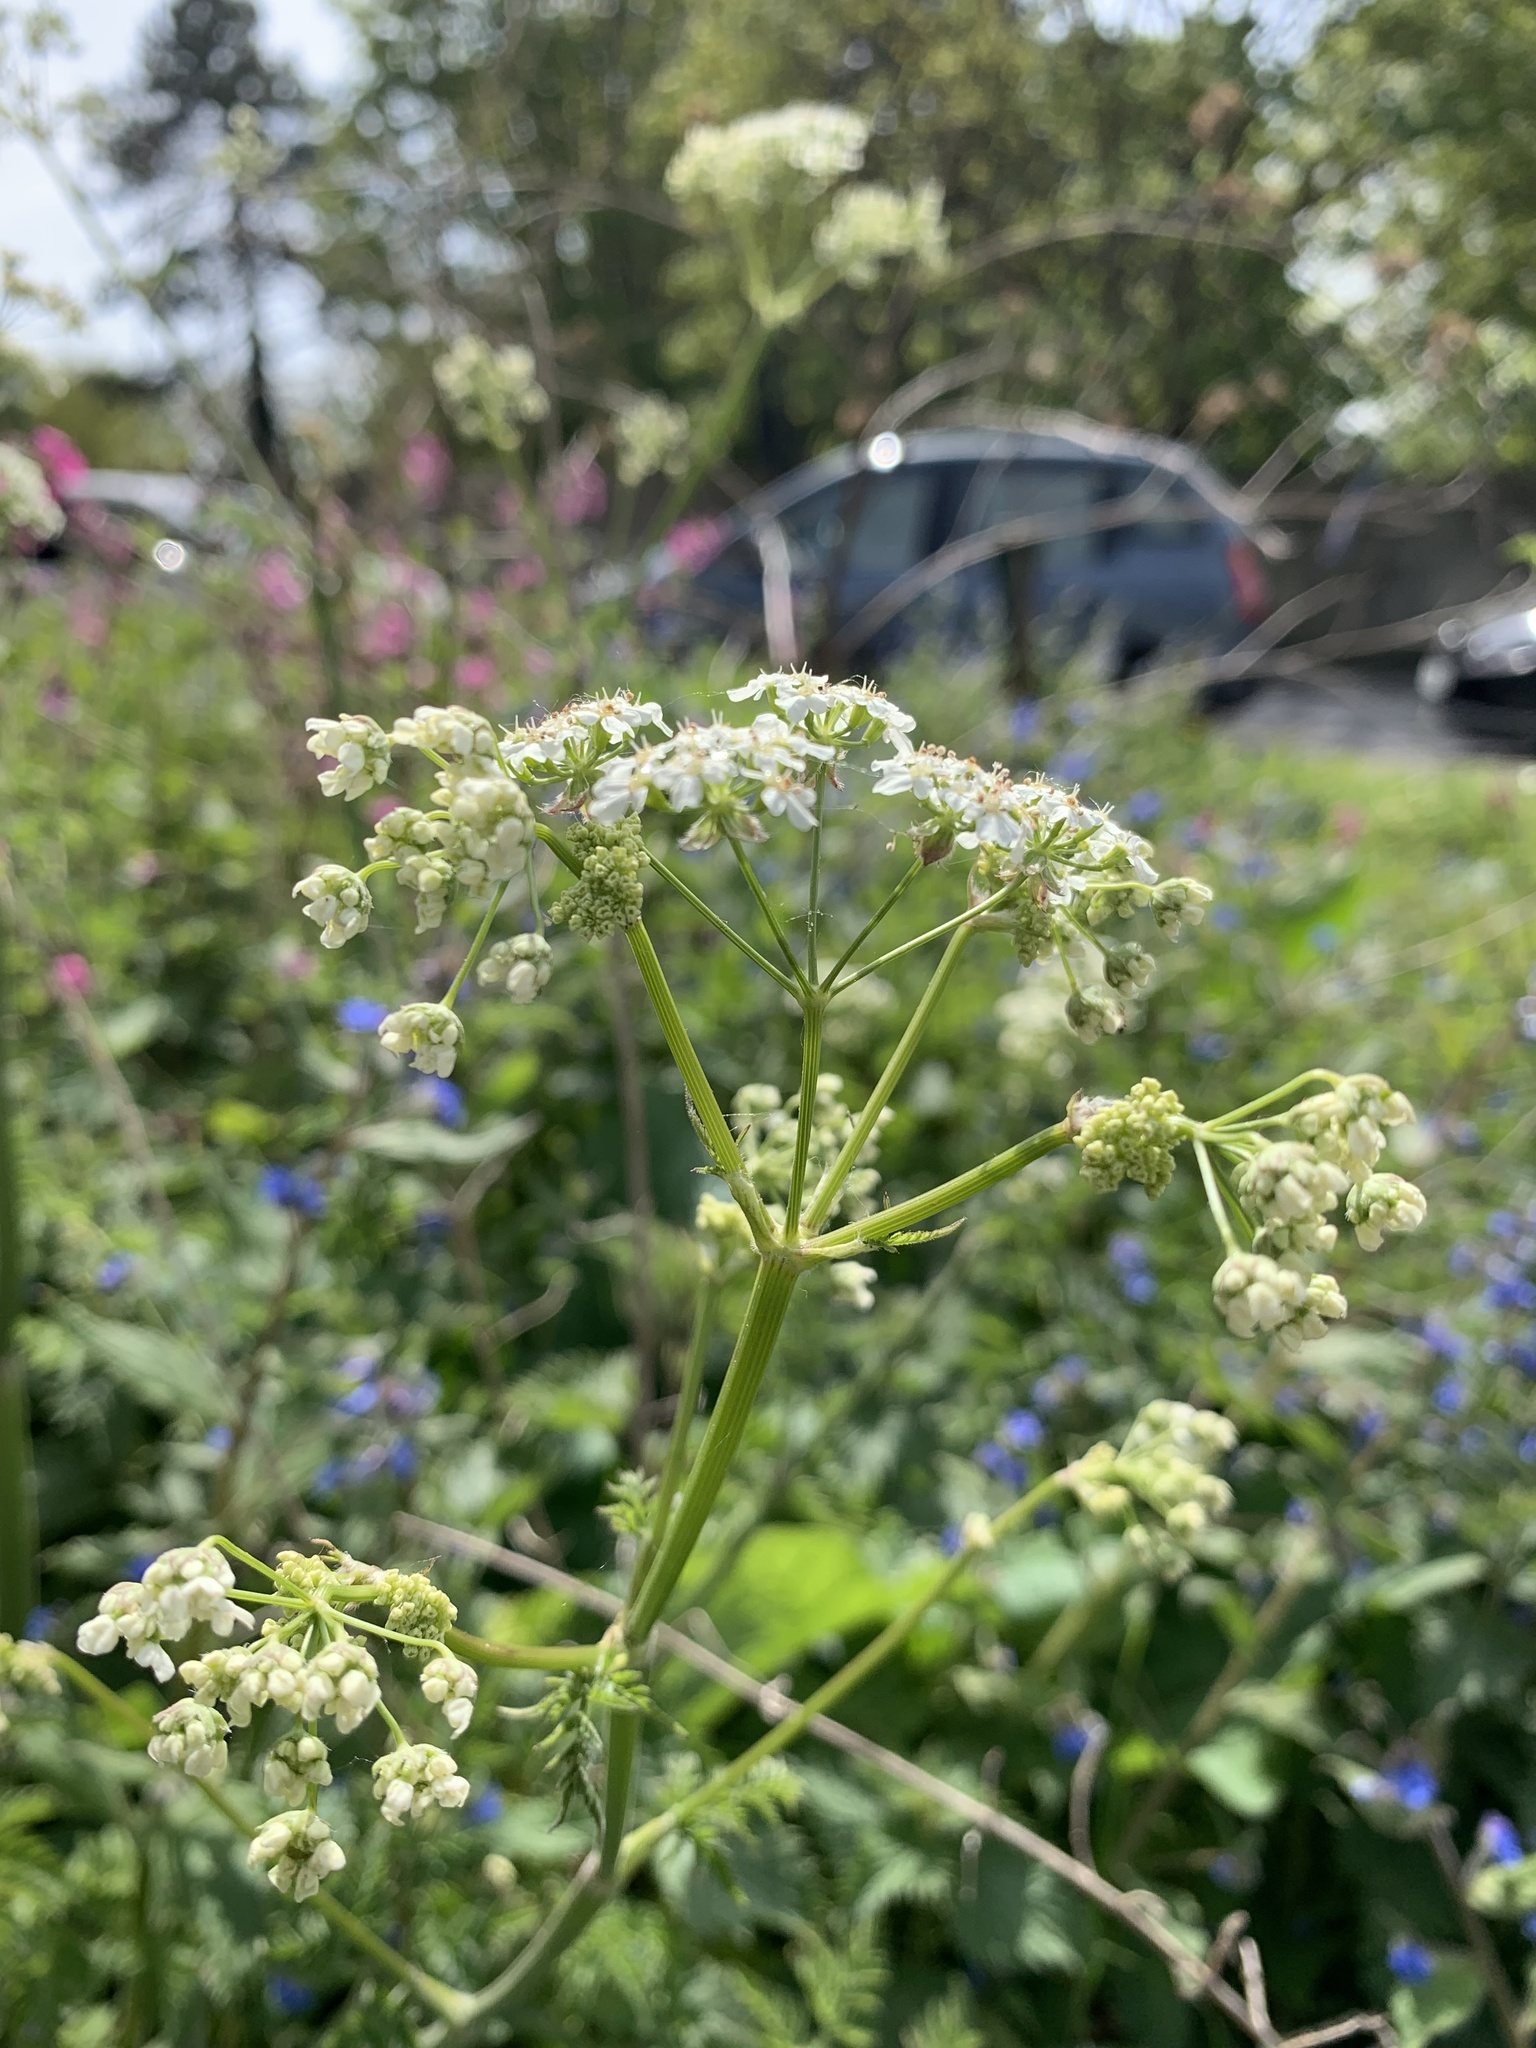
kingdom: Plantae
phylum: Tracheophyta
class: Magnoliopsida
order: Apiales
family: Apiaceae
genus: Anthriscus
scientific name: Anthriscus sylvestris
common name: Cow parsley
